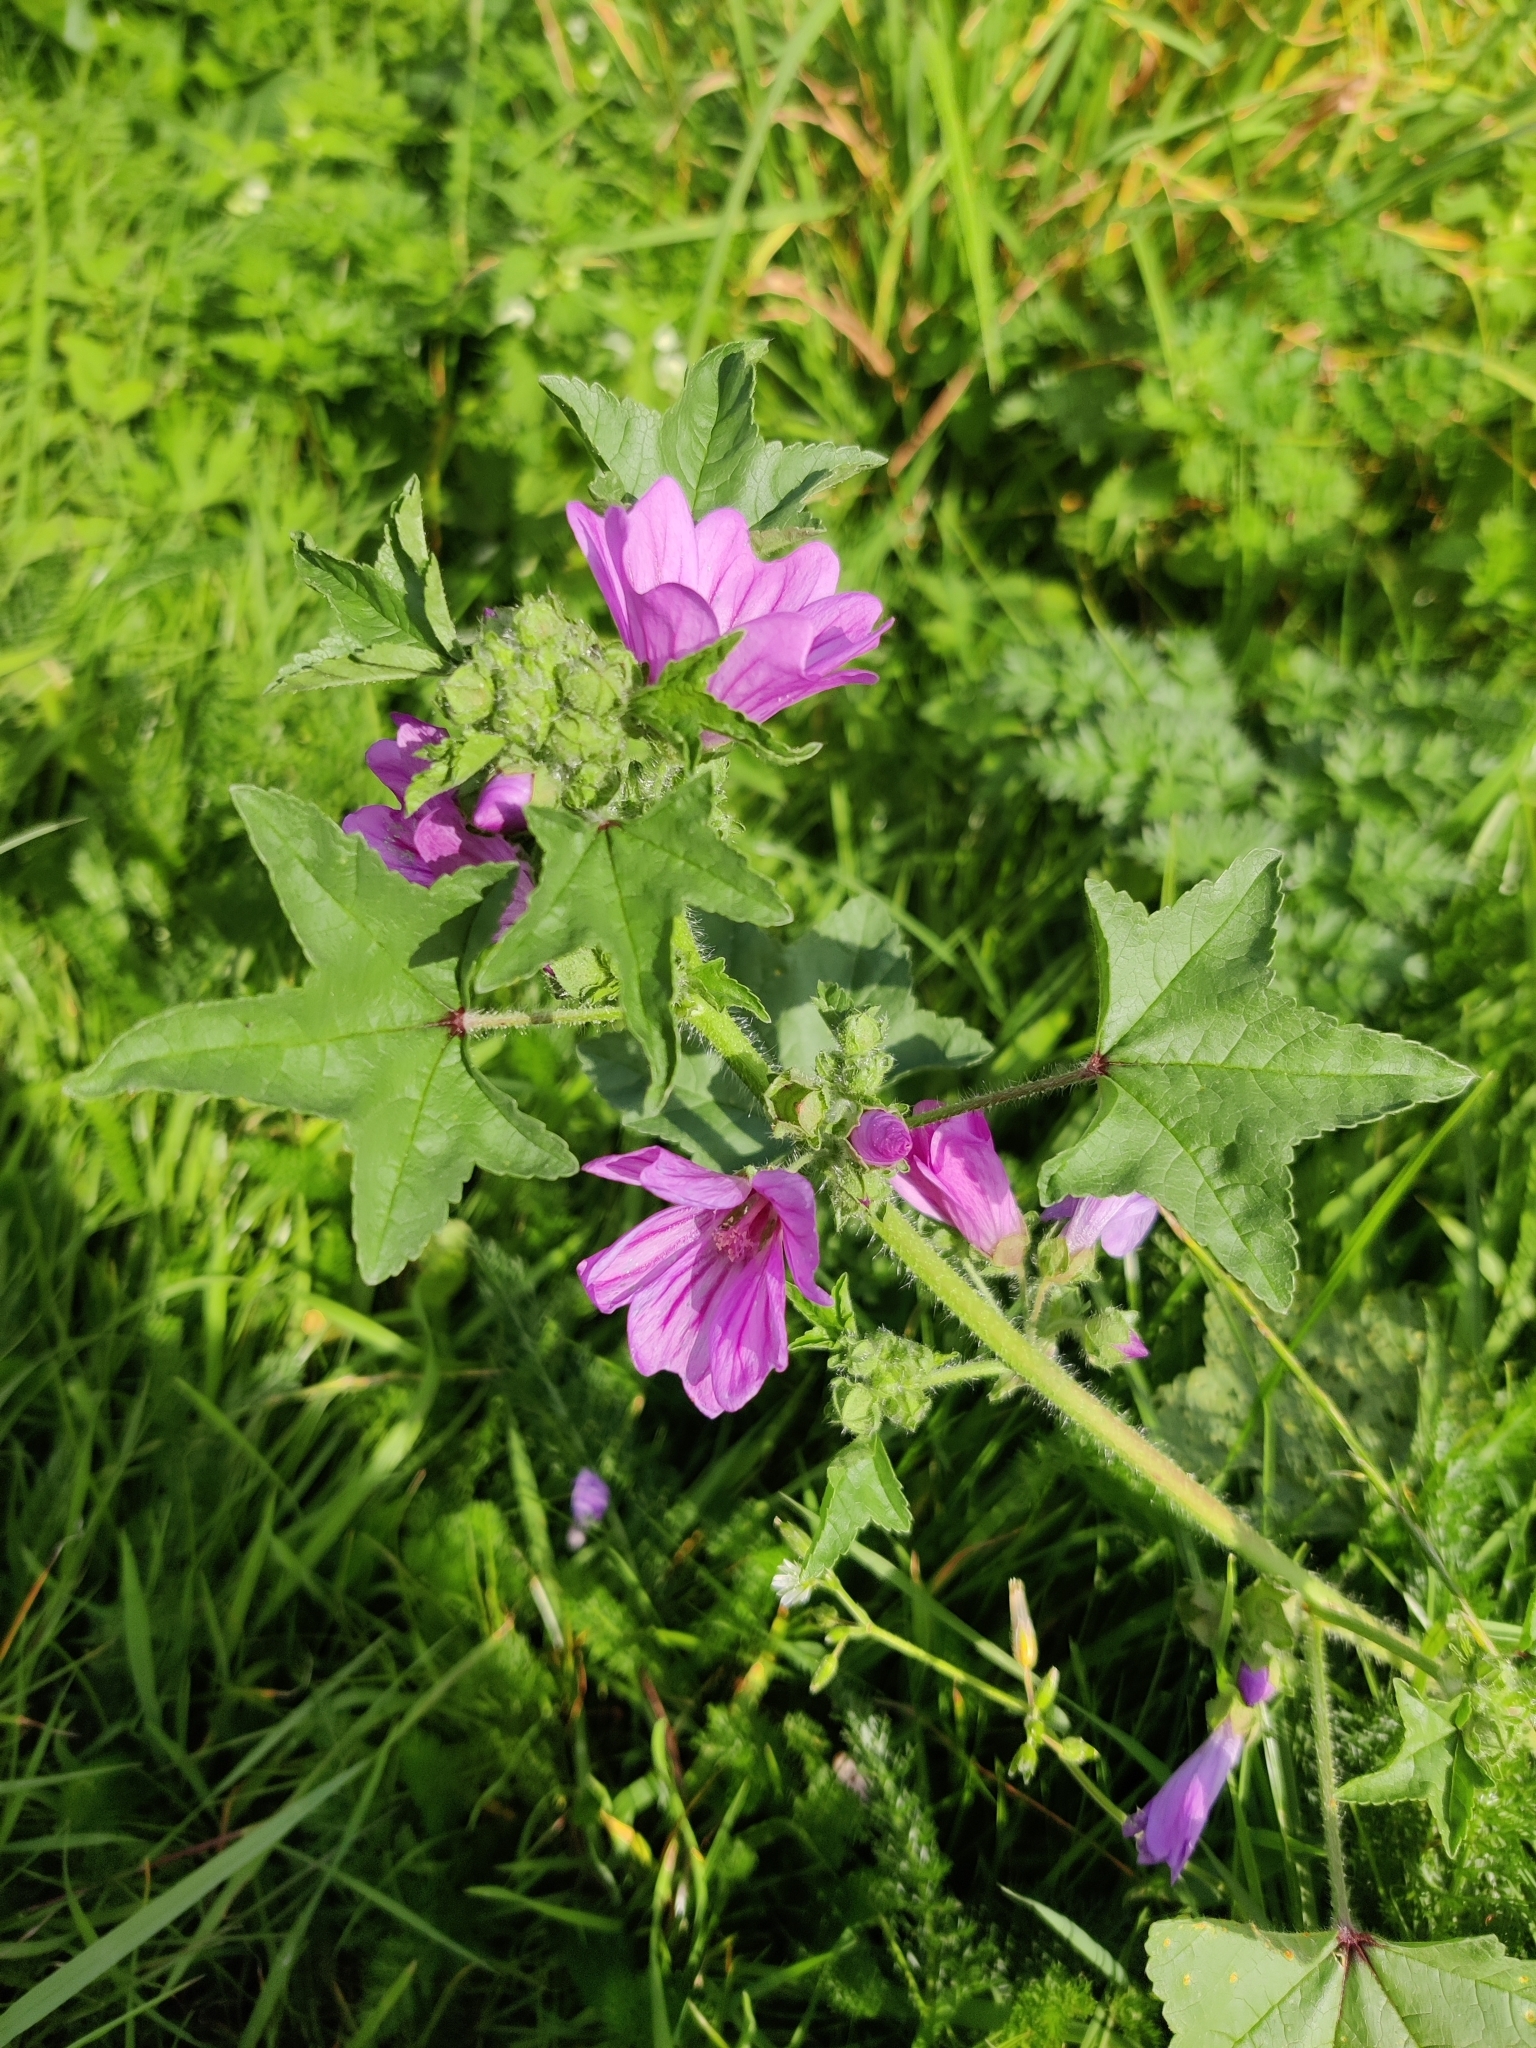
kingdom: Plantae
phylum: Tracheophyta
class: Magnoliopsida
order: Malvales
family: Malvaceae
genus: Malva
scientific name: Malva sylvestris
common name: Common mallow
